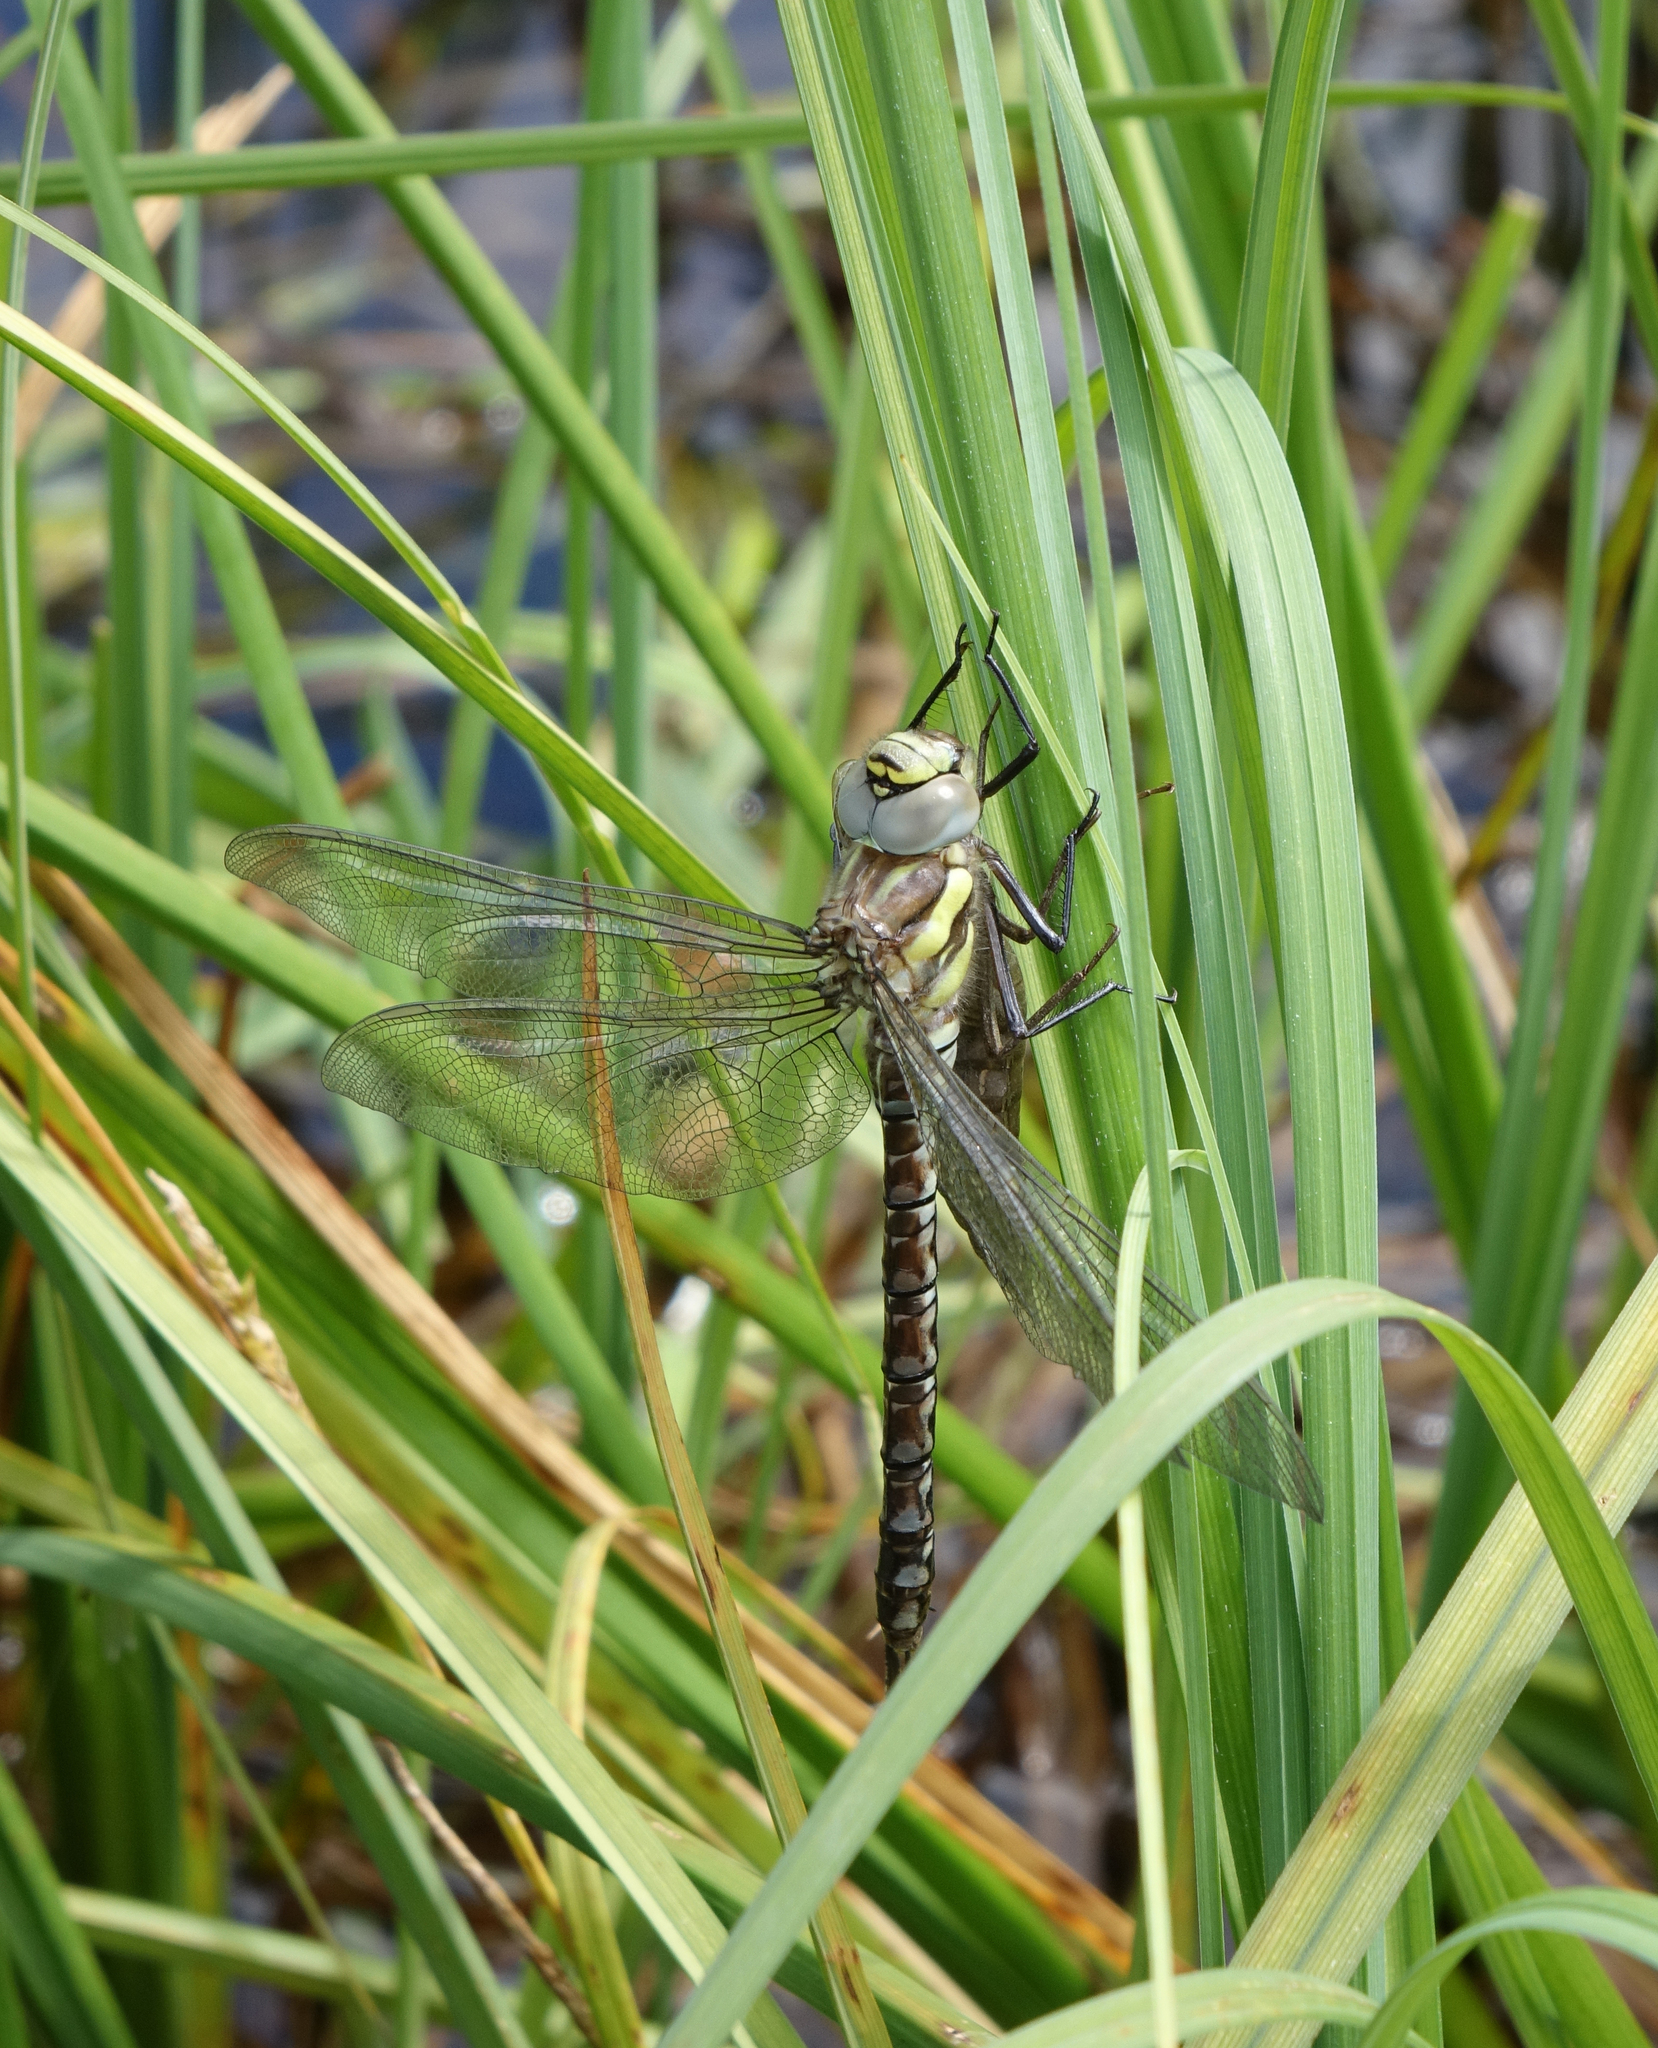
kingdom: Animalia
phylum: Arthropoda
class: Insecta
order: Odonata
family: Aeshnidae
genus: Aeshna
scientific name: Aeshna juncea
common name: Moorland hawker
